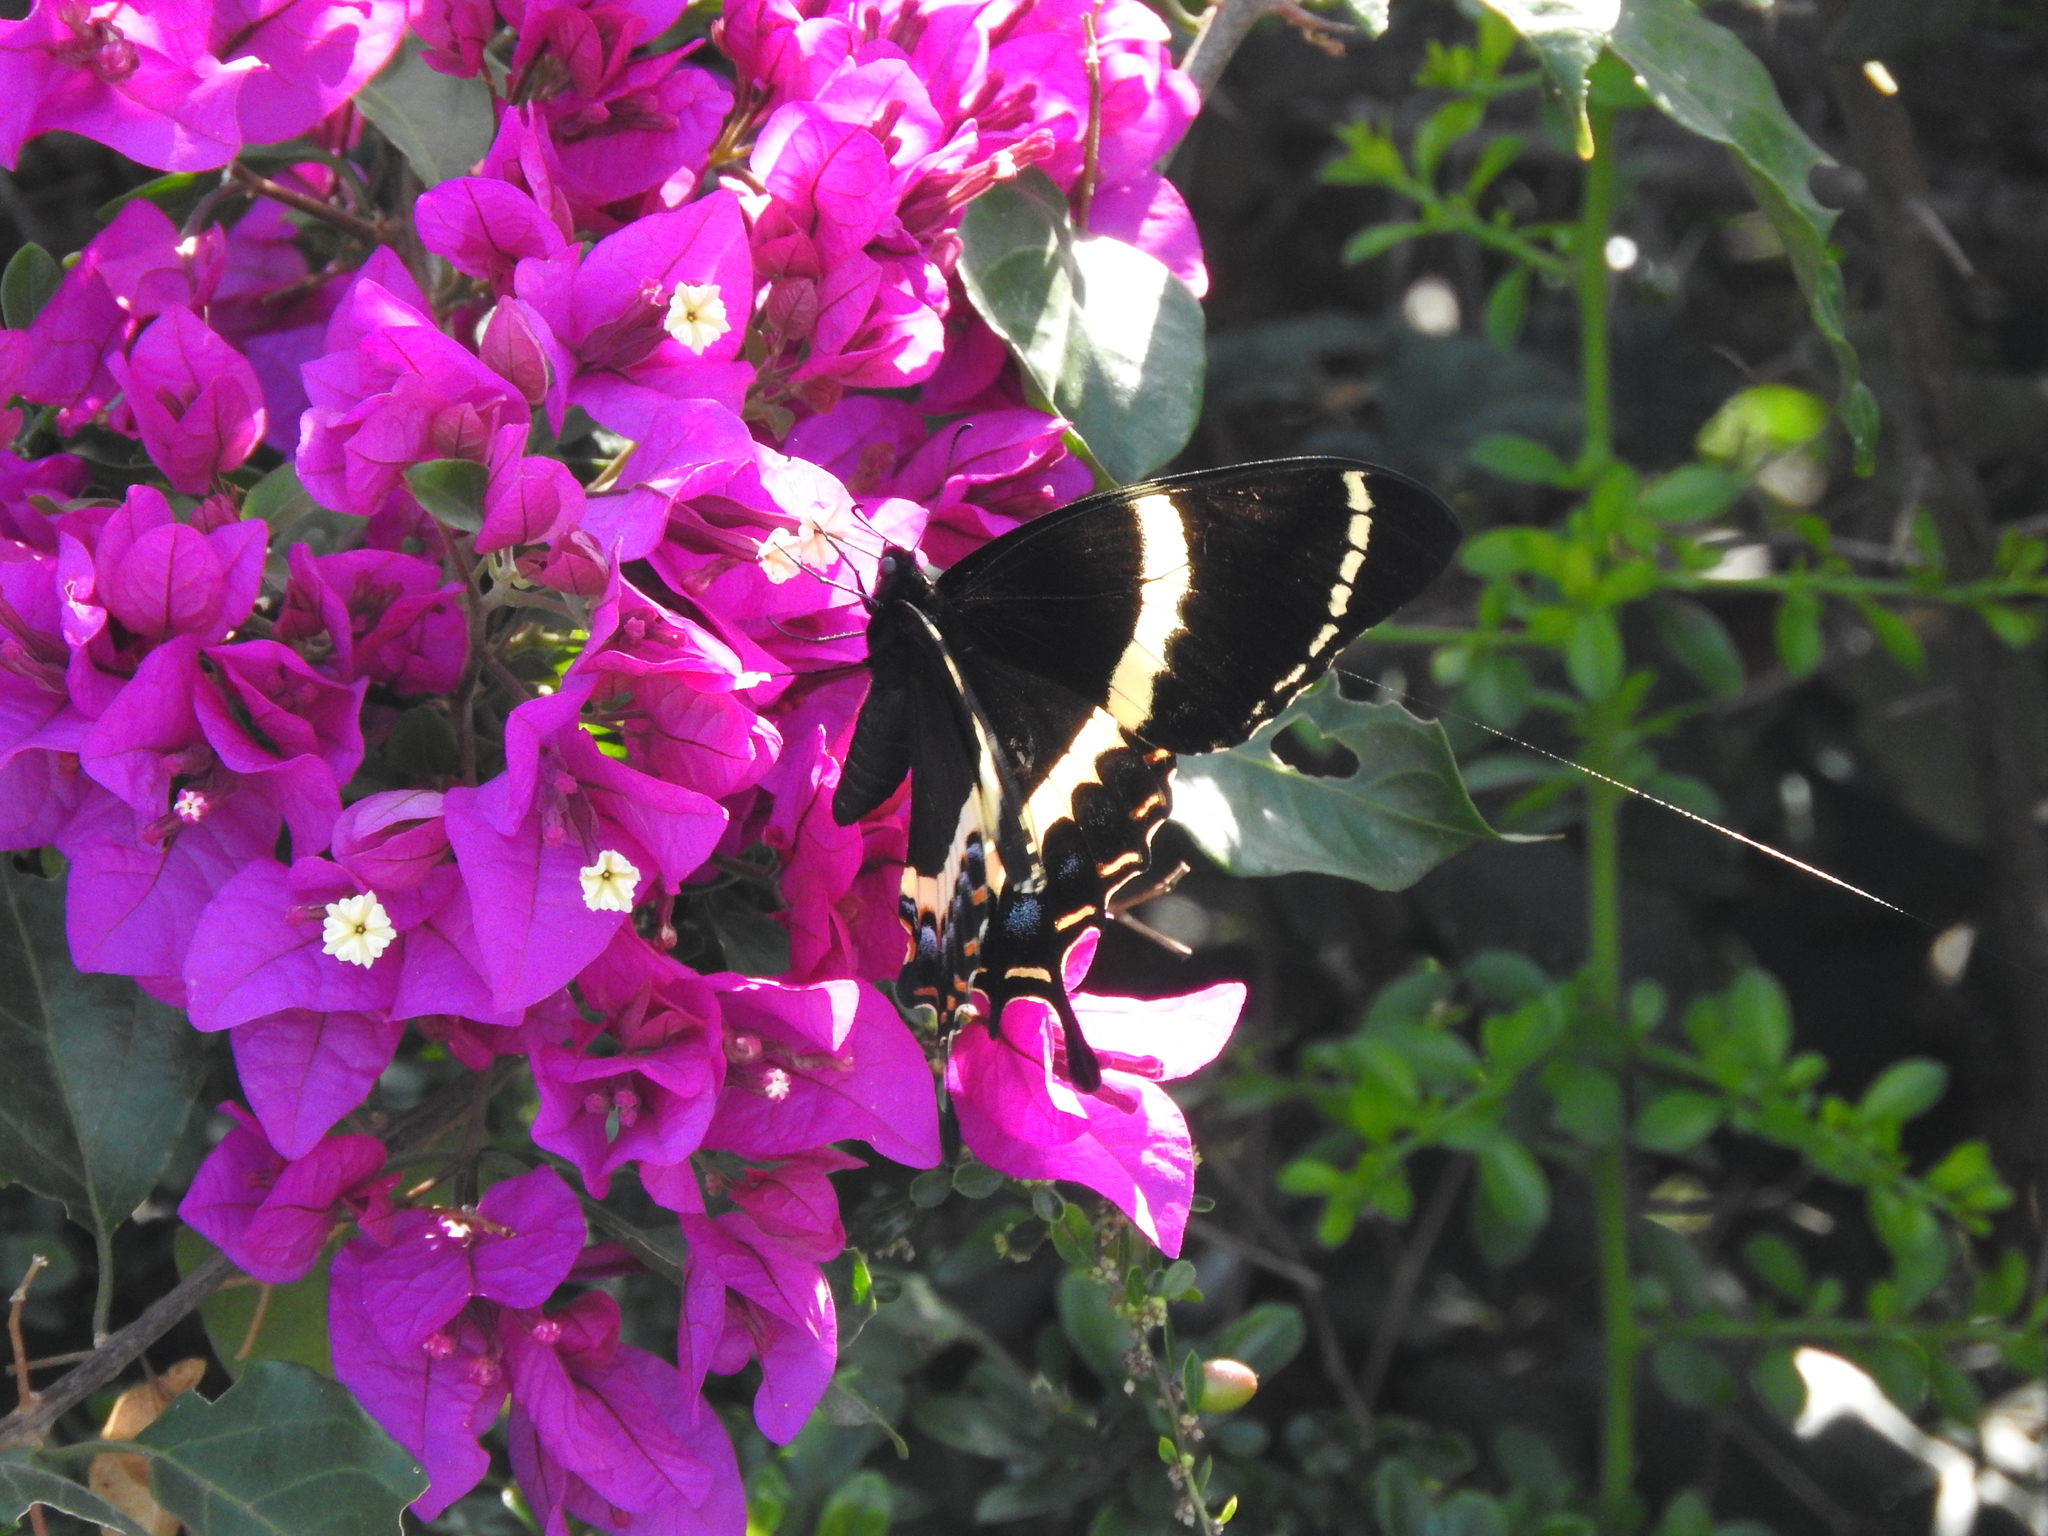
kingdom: Animalia
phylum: Arthropoda
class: Insecta
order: Lepidoptera
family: Papilionidae
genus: Papilio
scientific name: Papilio garamas
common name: Magnificent swallowtail
